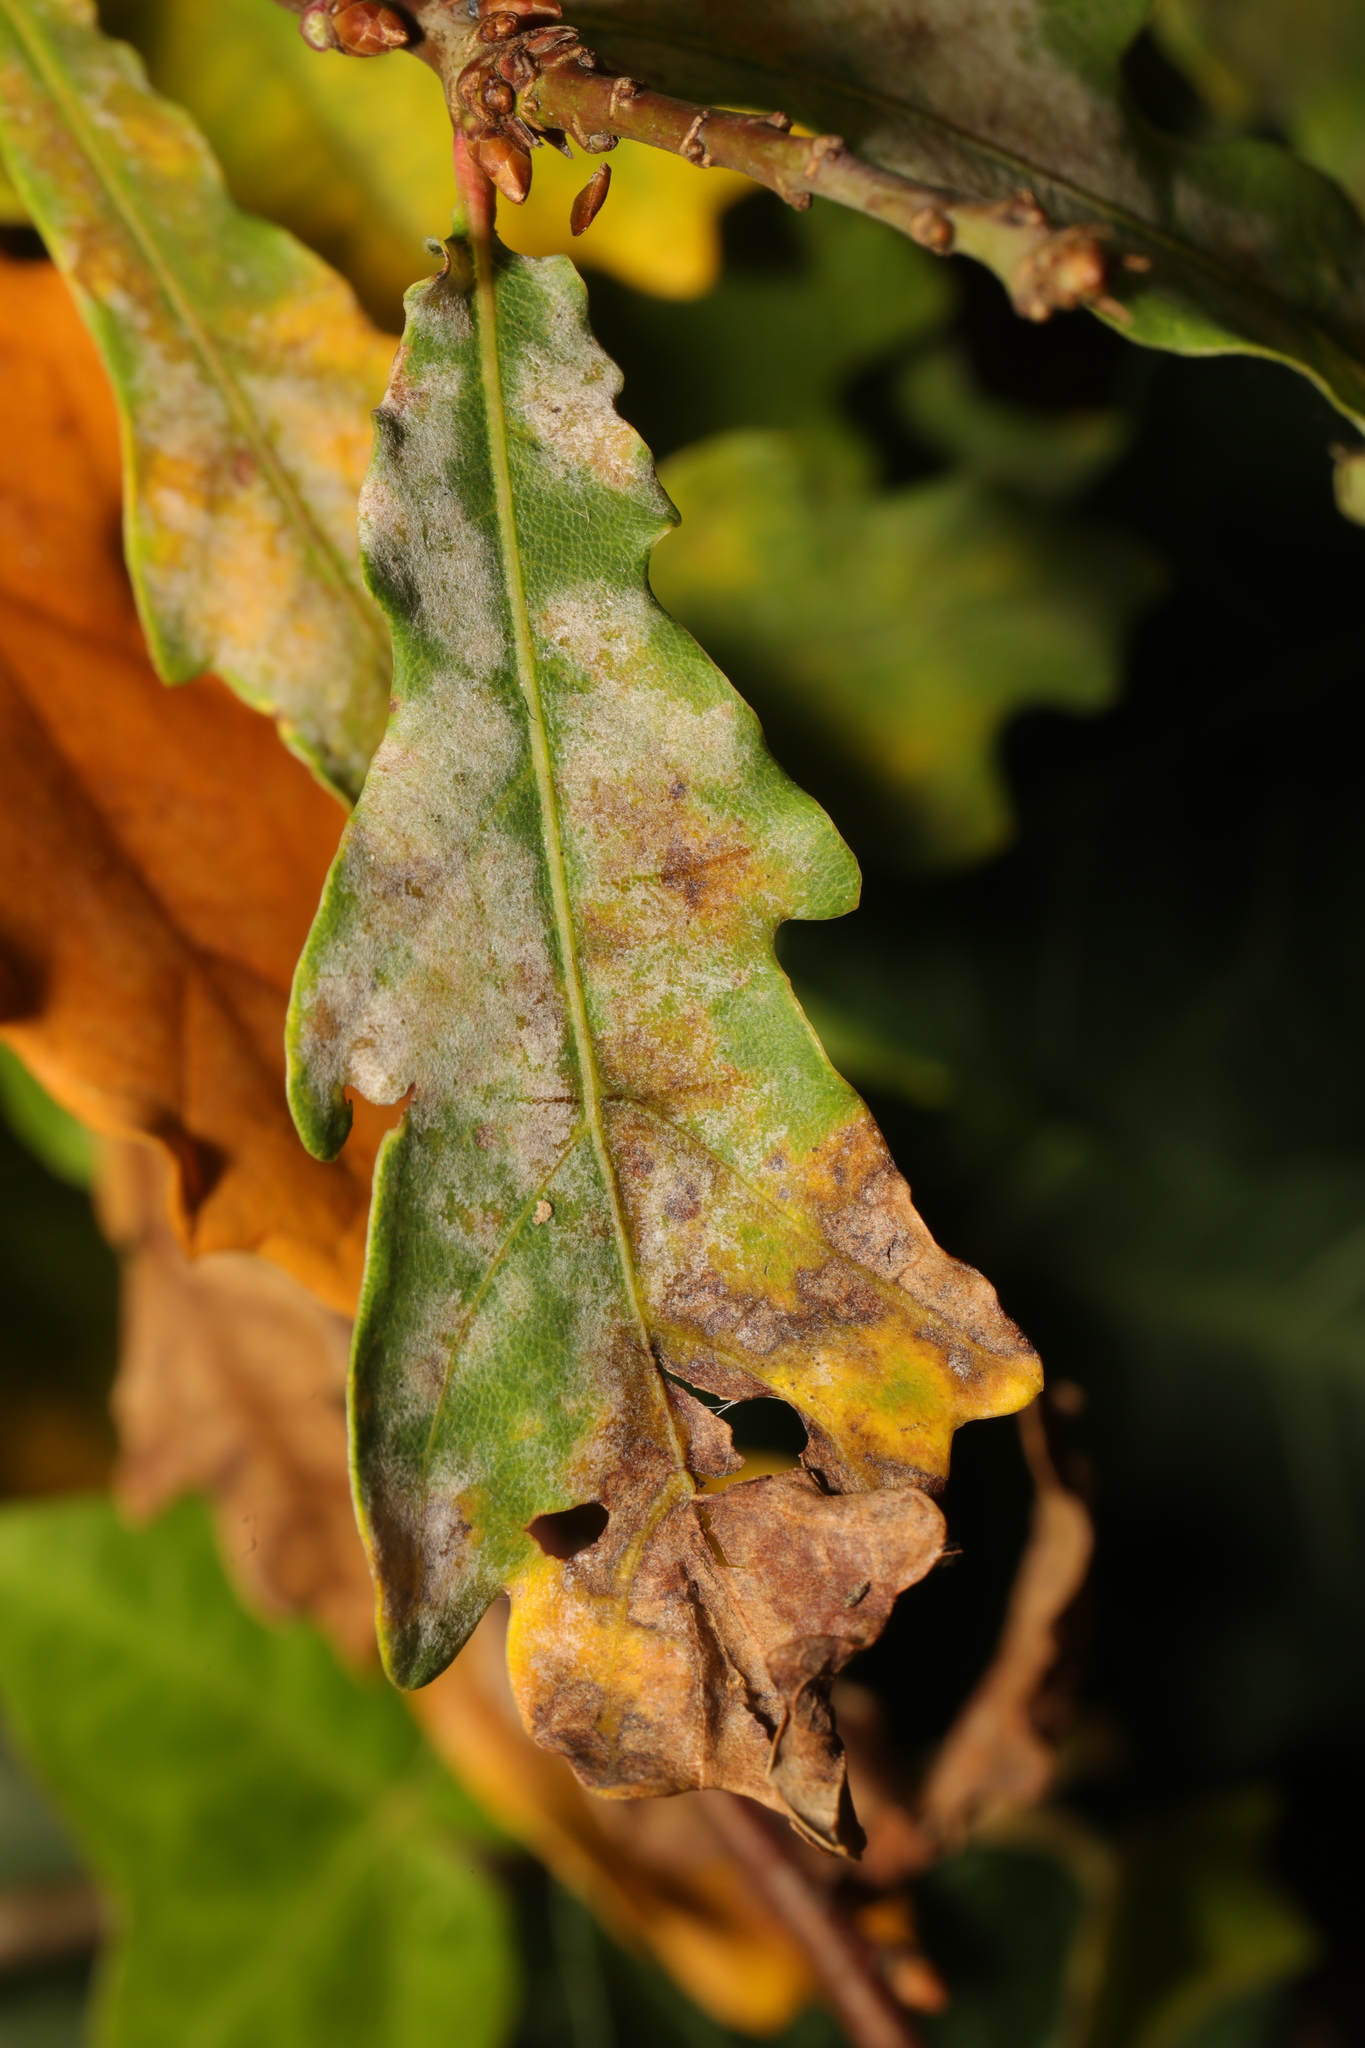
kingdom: Fungi
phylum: Ascomycota
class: Leotiomycetes
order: Helotiales
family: Erysiphaceae
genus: Erysiphe
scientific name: Erysiphe alphitoides
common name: Oak mildew
